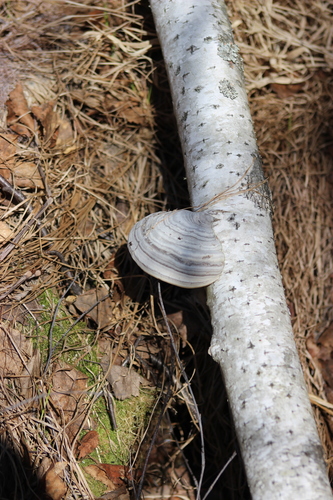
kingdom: Fungi
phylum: Basidiomycota
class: Agaricomycetes
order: Polyporales
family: Polyporaceae
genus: Fomes
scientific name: Fomes fomentarius
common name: Hoof fungus
